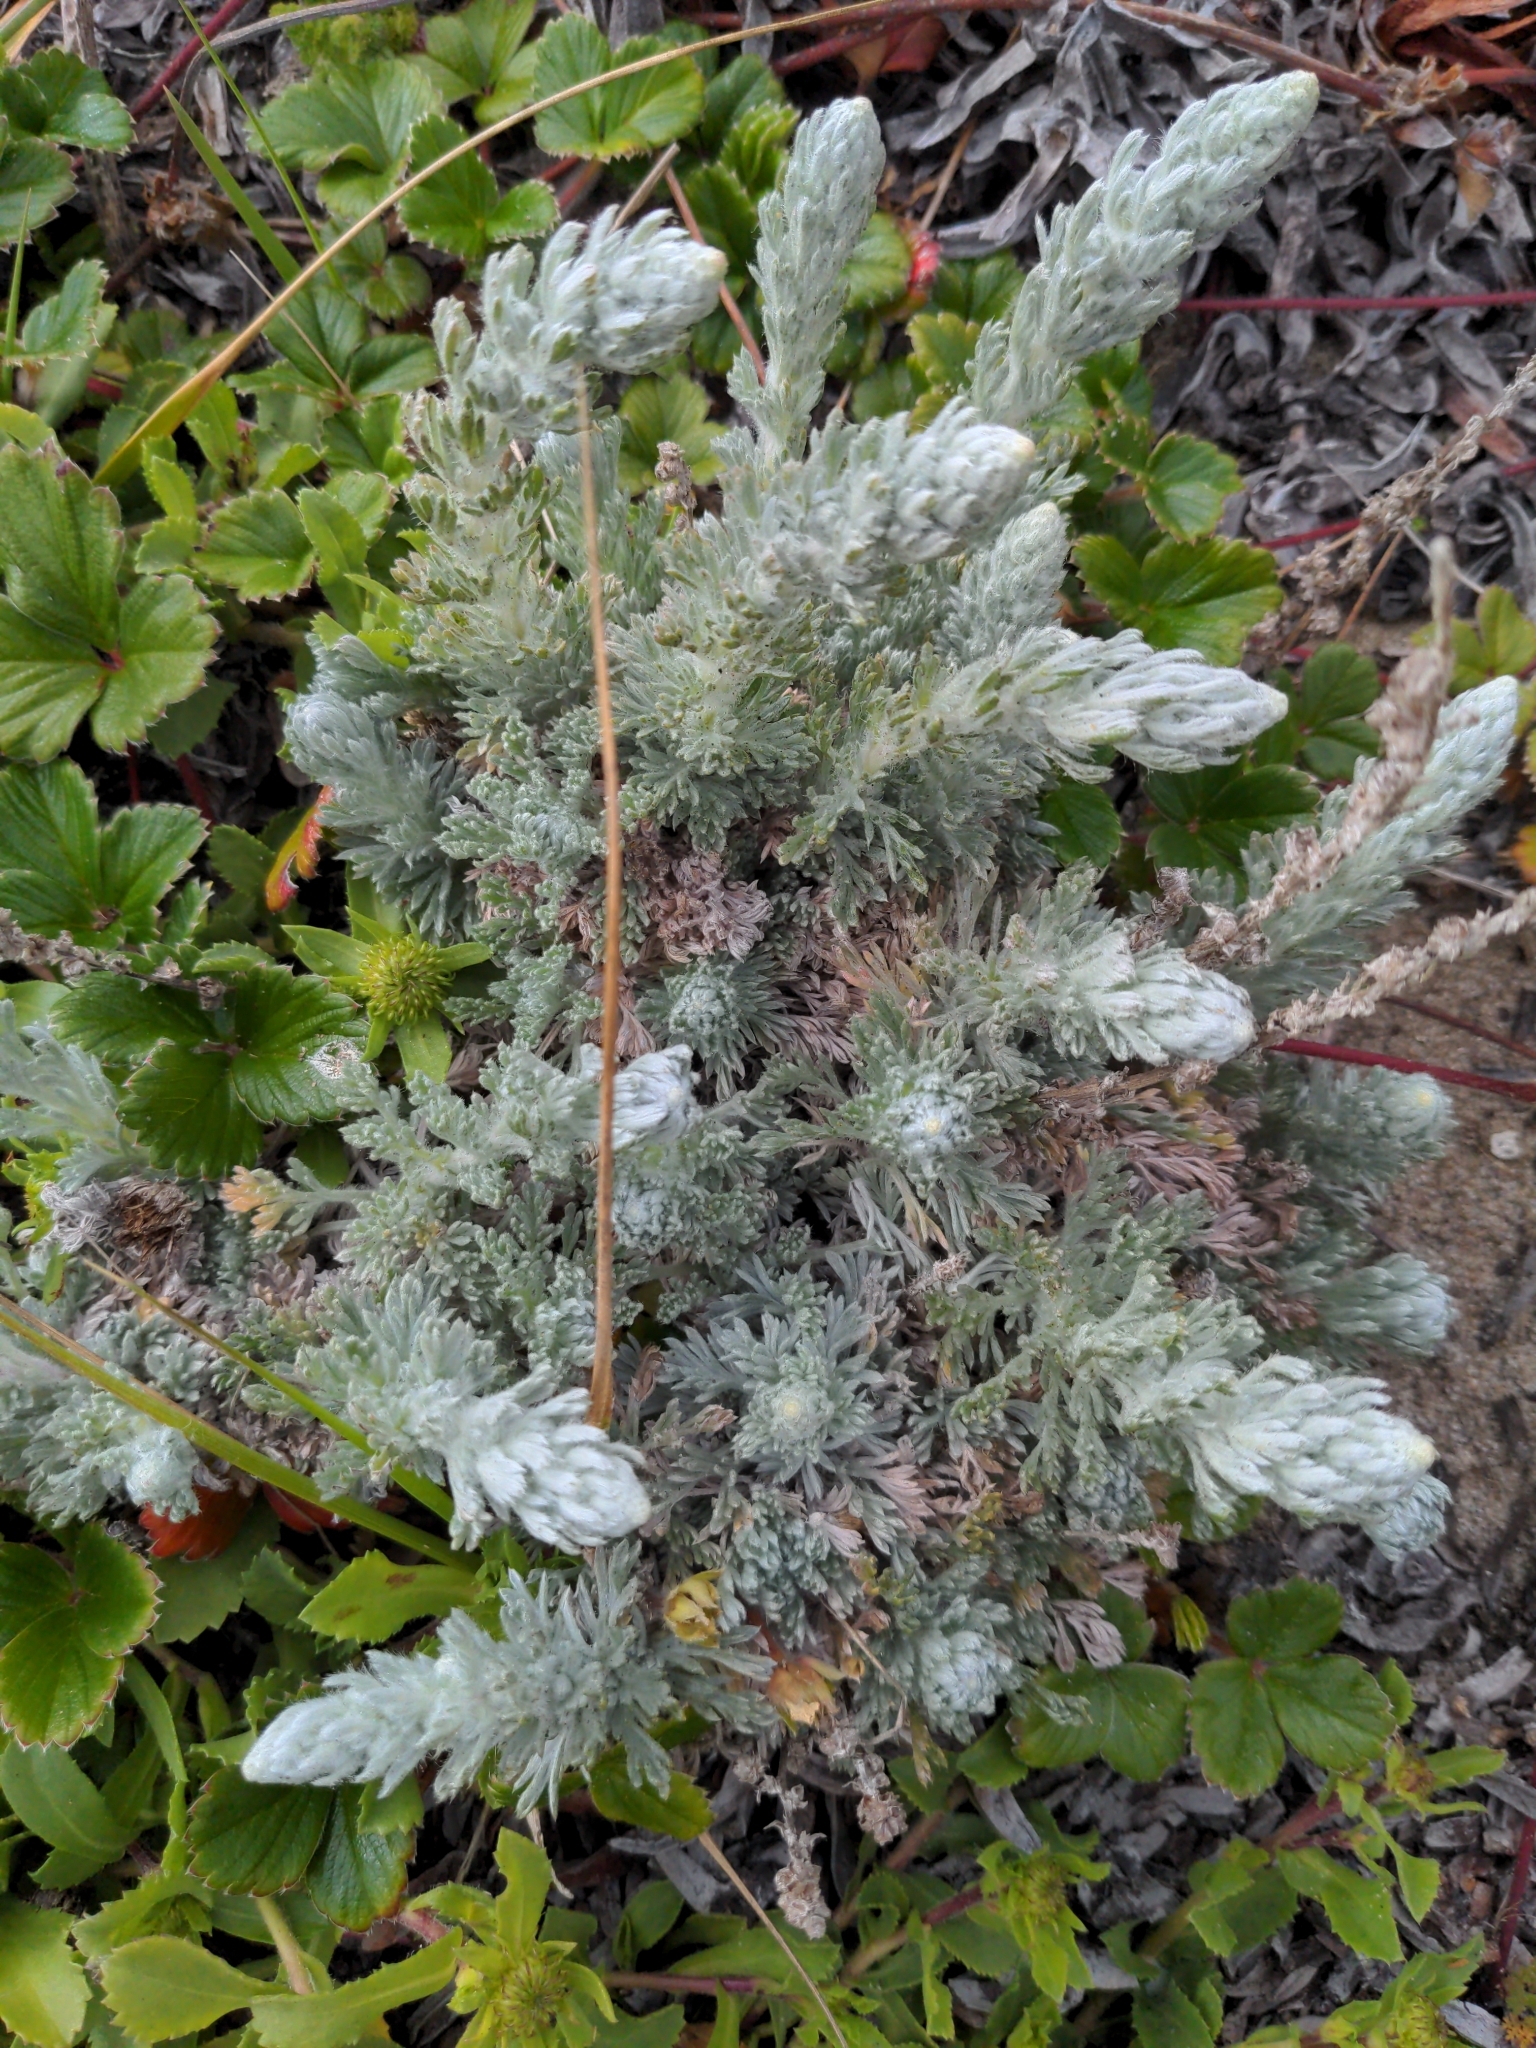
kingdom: Plantae
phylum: Tracheophyta
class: Magnoliopsida
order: Asterales
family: Asteraceae
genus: Artemisia
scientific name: Artemisia pycnocephala
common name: Coastal sagewort
